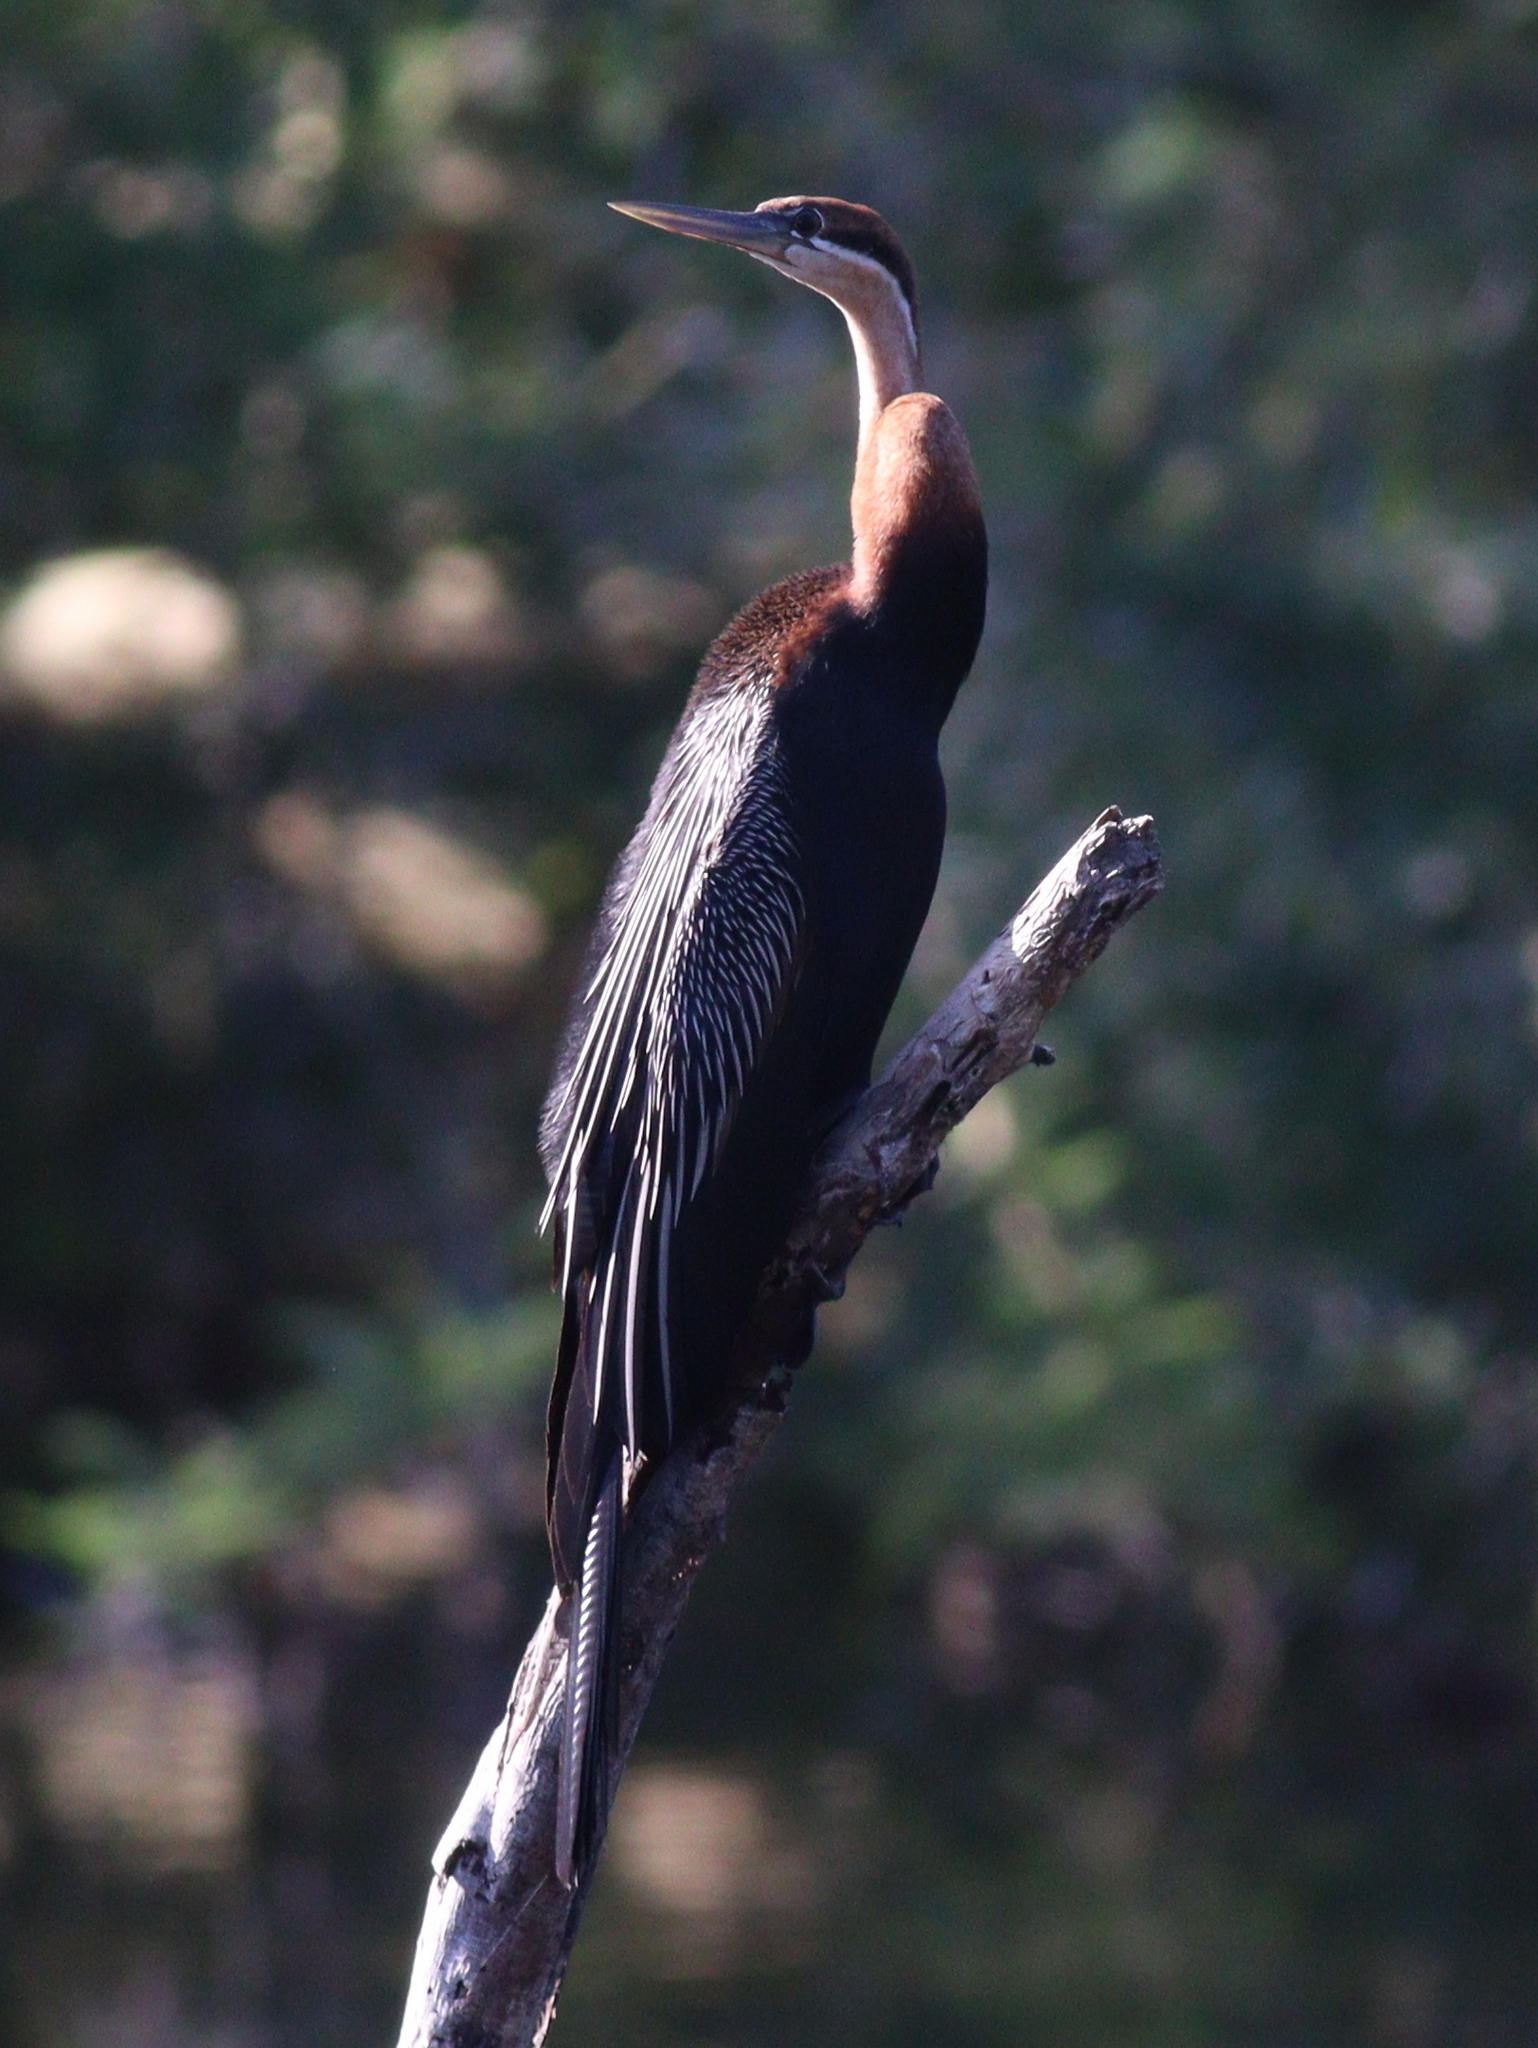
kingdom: Animalia
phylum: Chordata
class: Aves
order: Suliformes
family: Anhingidae
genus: Anhinga
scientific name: Anhinga rufa
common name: African darter
